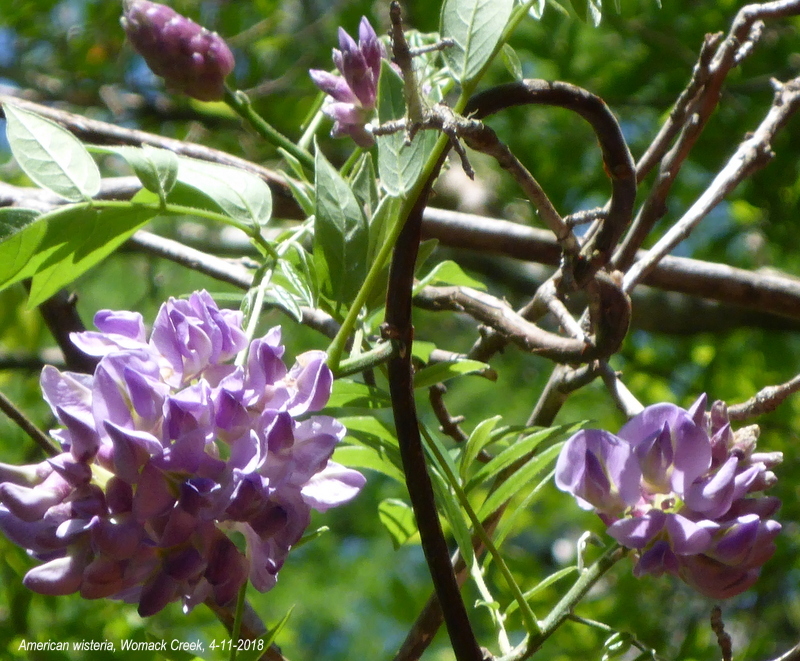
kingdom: Plantae
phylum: Tracheophyta
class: Magnoliopsida
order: Fabales
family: Fabaceae
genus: Wisteria
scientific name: Wisteria frutescens
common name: American wisteria
